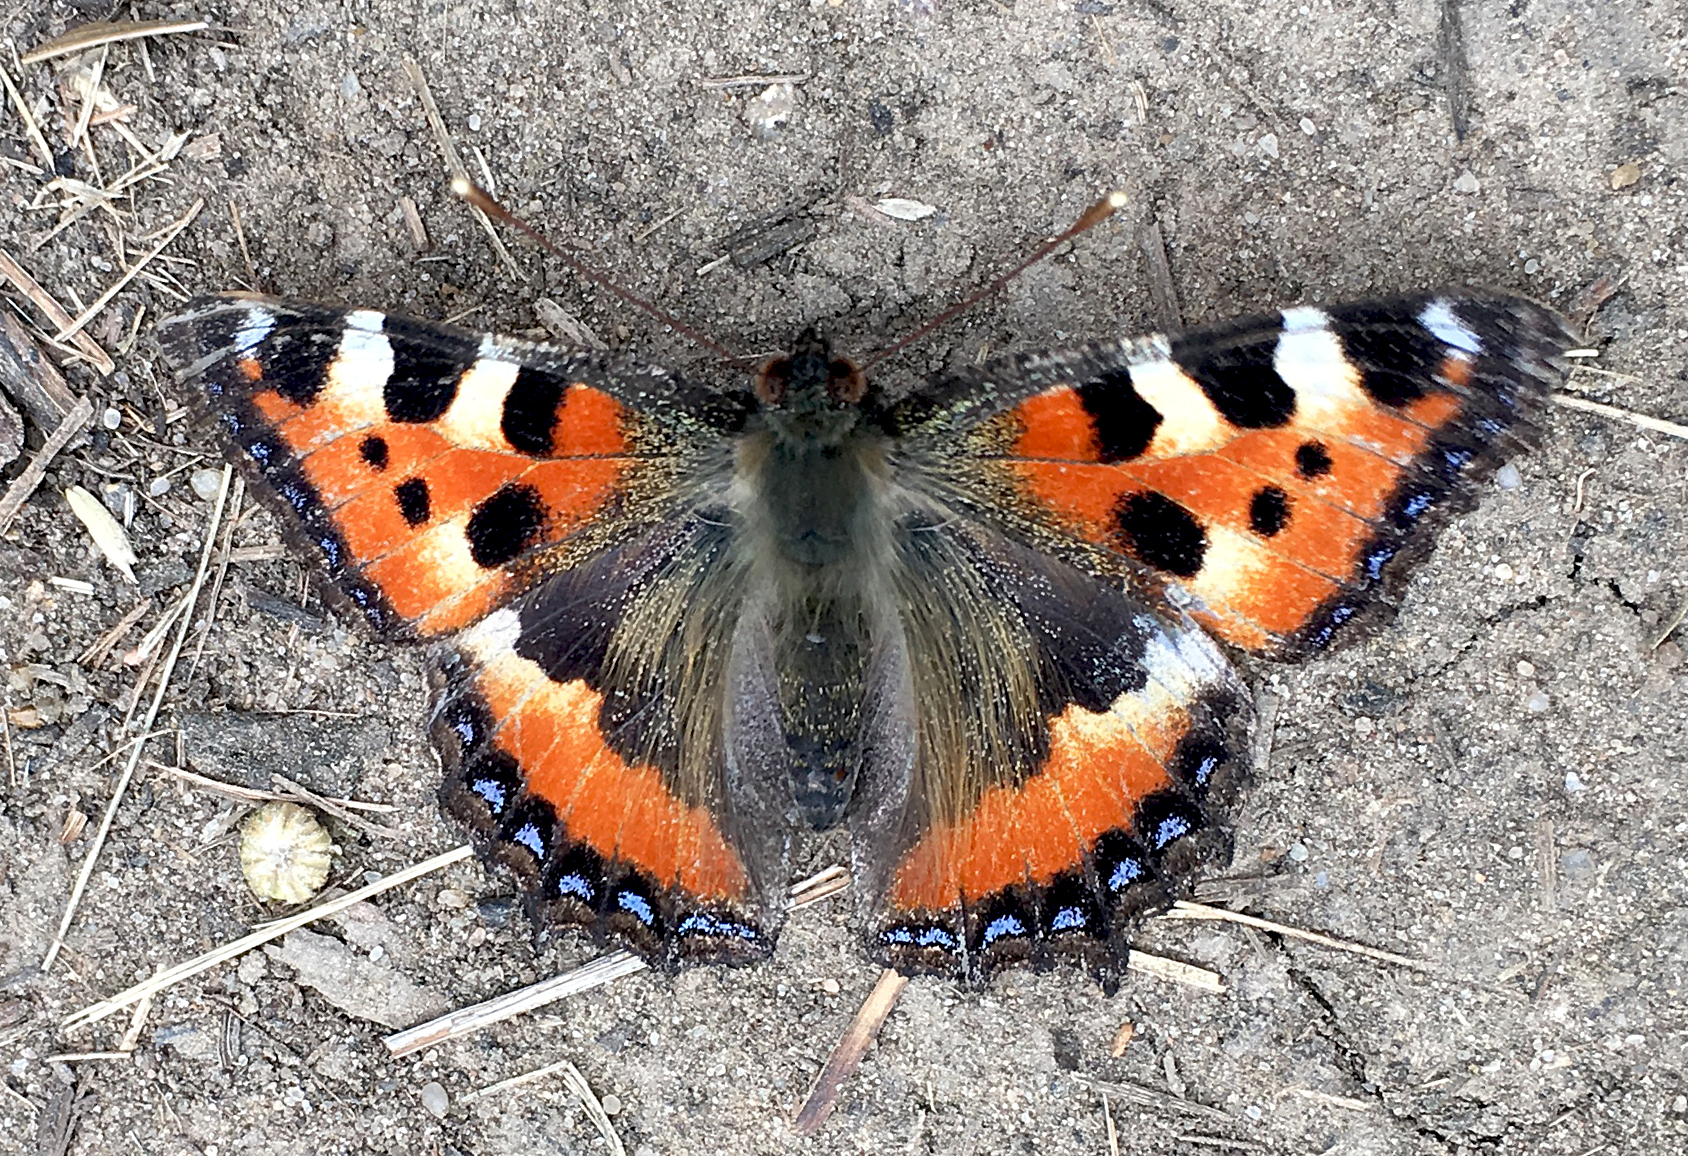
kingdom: Animalia
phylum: Arthropoda
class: Insecta
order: Lepidoptera
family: Nymphalidae
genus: Aglais
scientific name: Aglais urticae
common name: Small tortoiseshell
